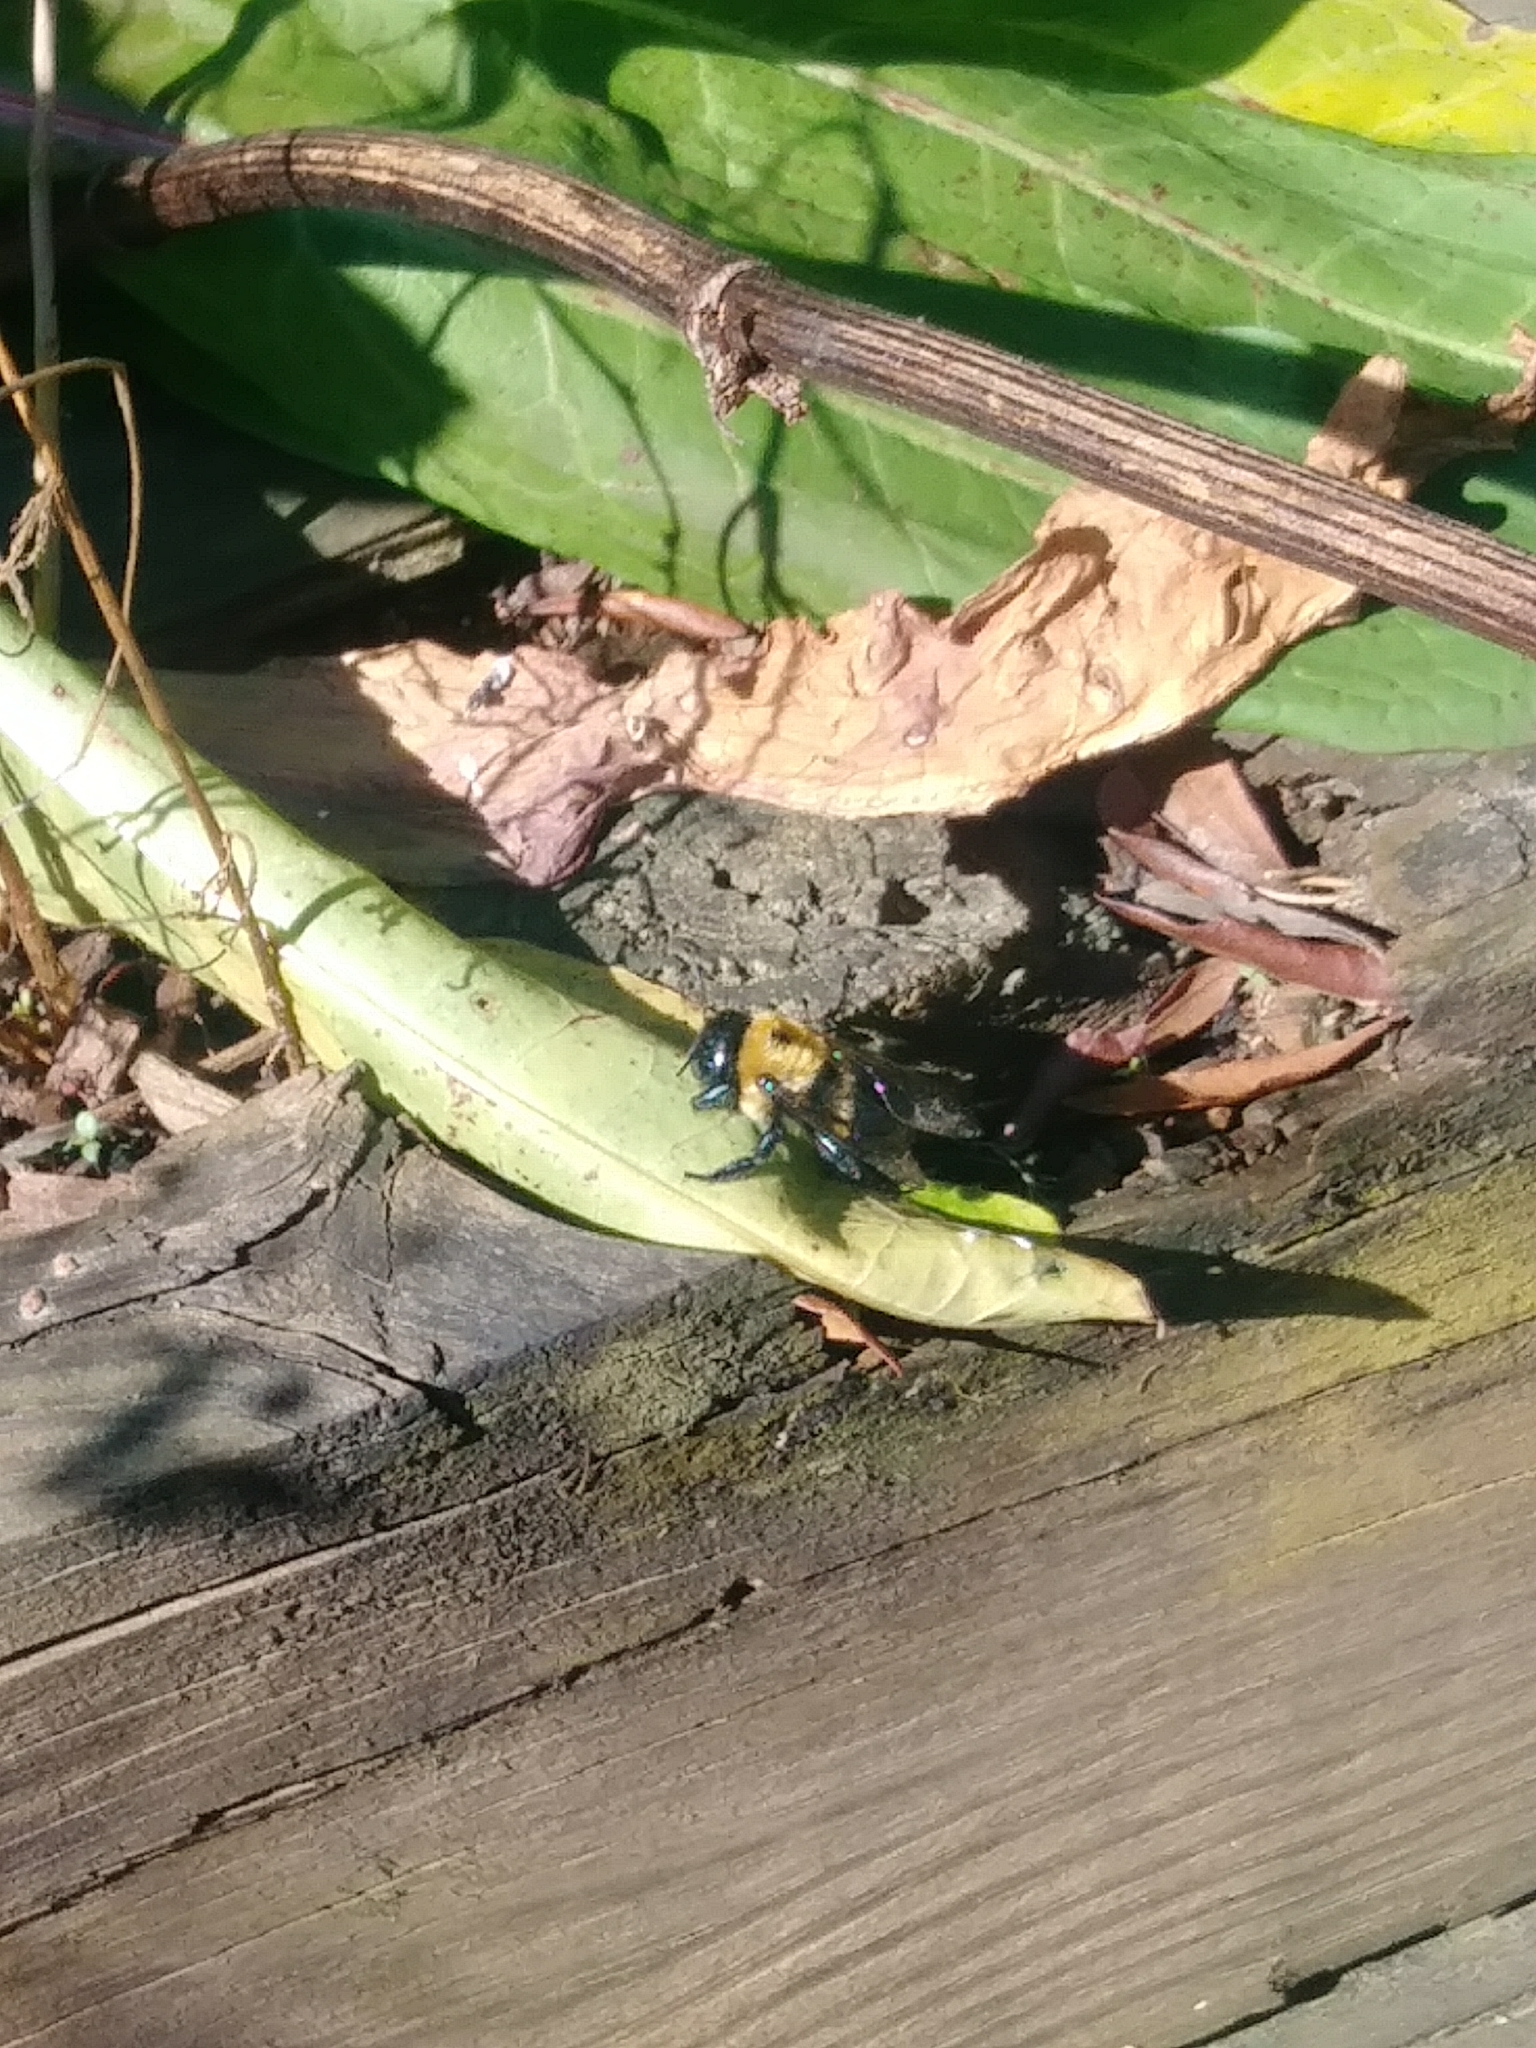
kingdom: Animalia
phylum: Arthropoda
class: Insecta
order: Hymenoptera
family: Apidae
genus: Xylocopa
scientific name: Xylocopa virginica
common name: Carpenter bee
